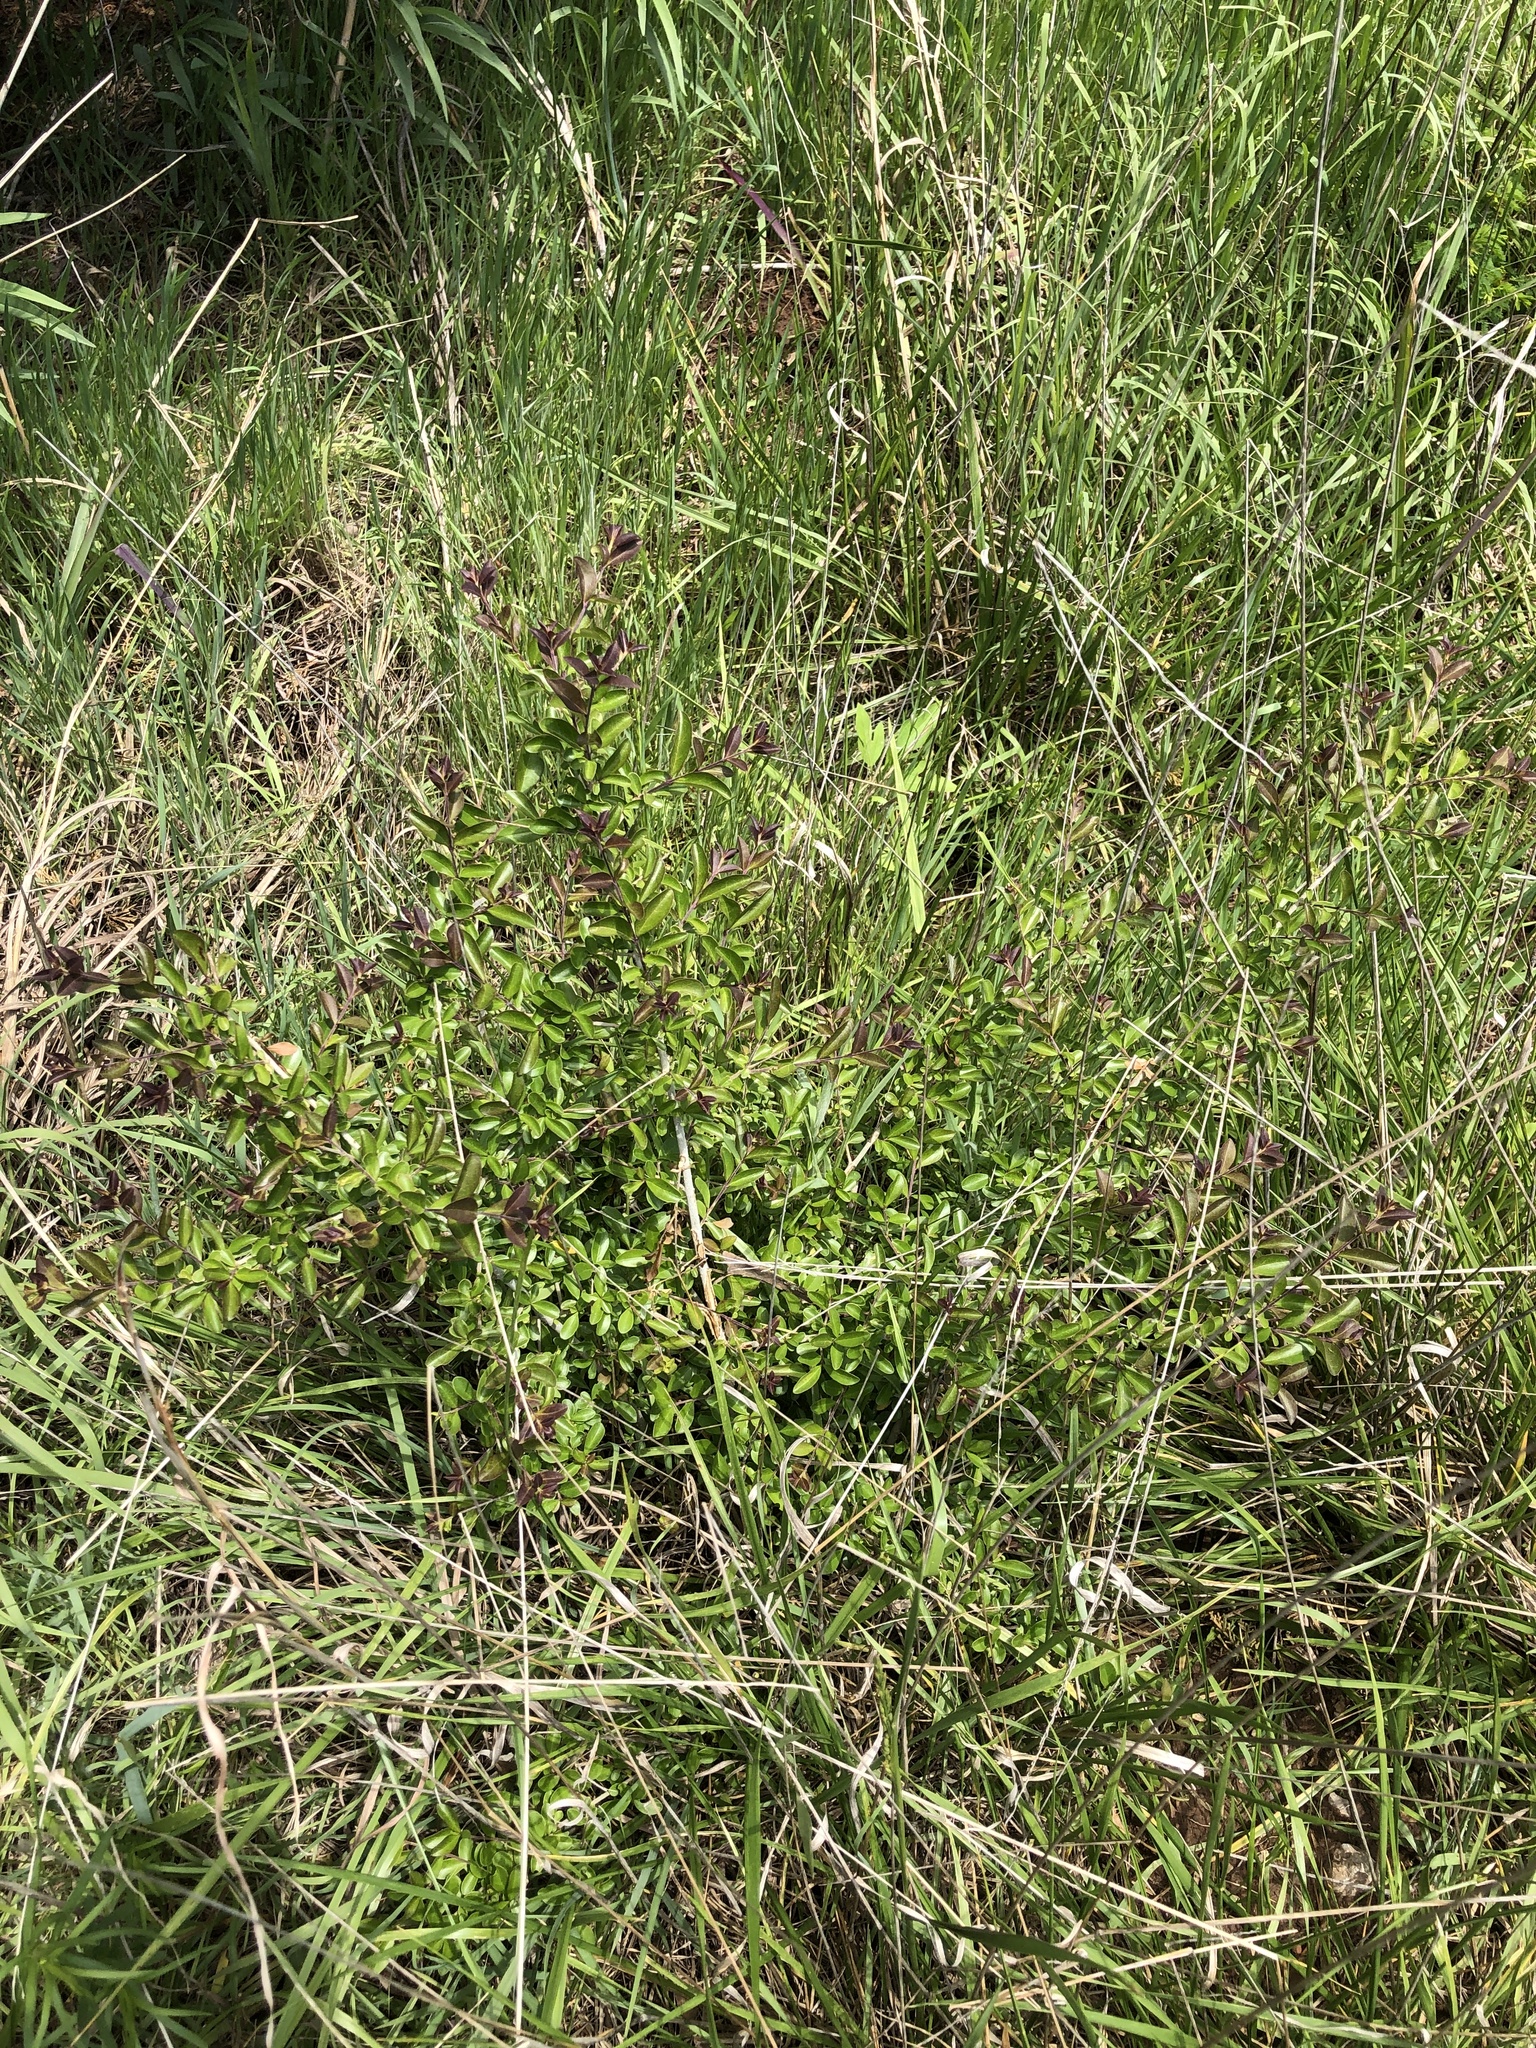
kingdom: Plantae
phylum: Tracheophyta
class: Magnoliopsida
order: Lamiales
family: Oleaceae
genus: Ligustrum
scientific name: Ligustrum quihoui
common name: Waxyleaf privet
